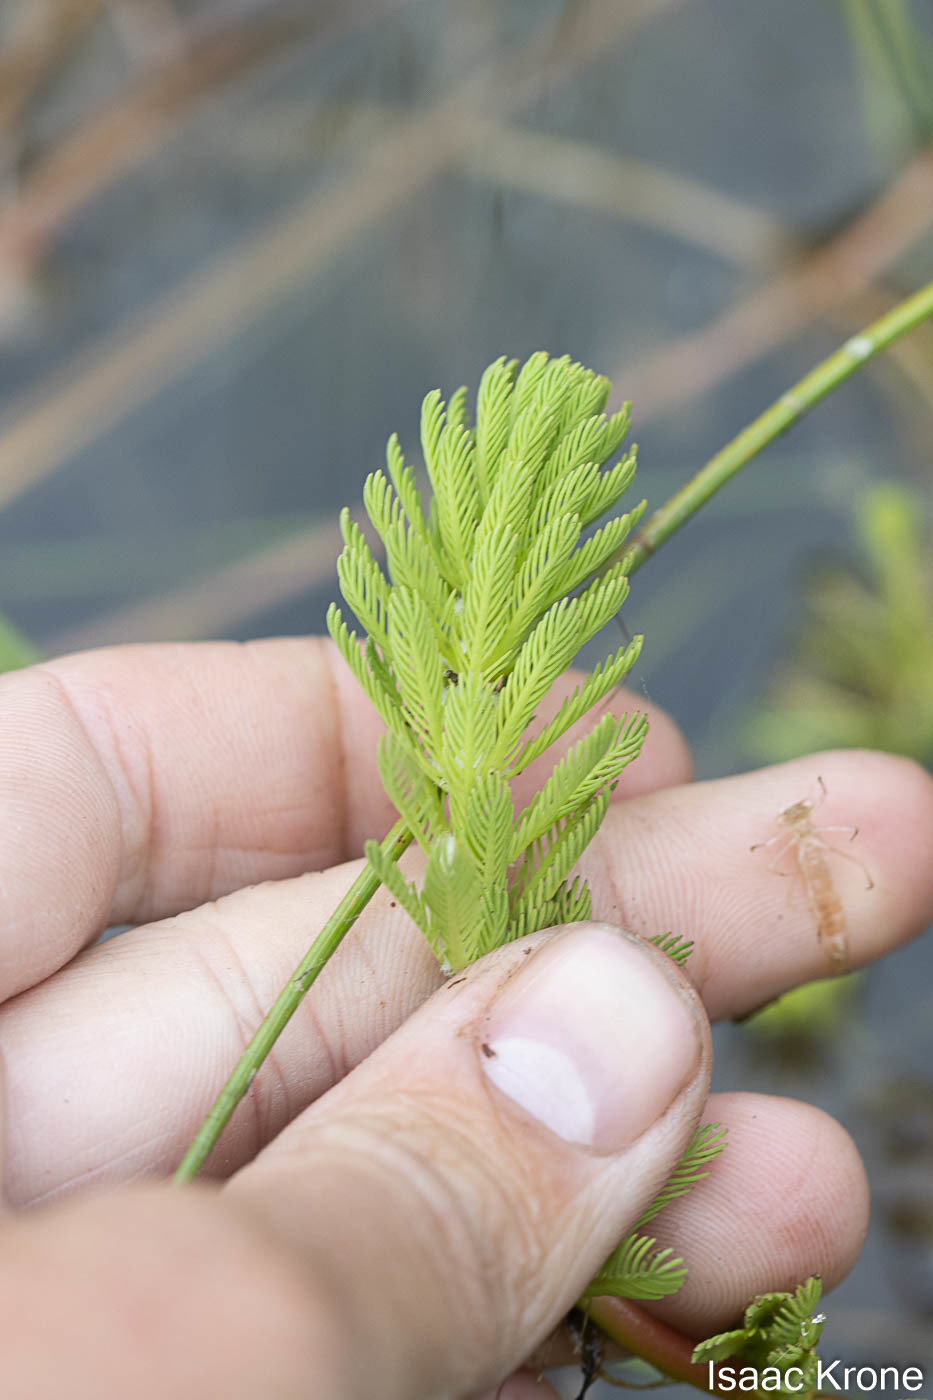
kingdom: Plantae
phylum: Tracheophyta
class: Magnoliopsida
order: Saxifragales
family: Haloragaceae
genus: Myriophyllum
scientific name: Myriophyllum aquaticum
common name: Parrot's feather
